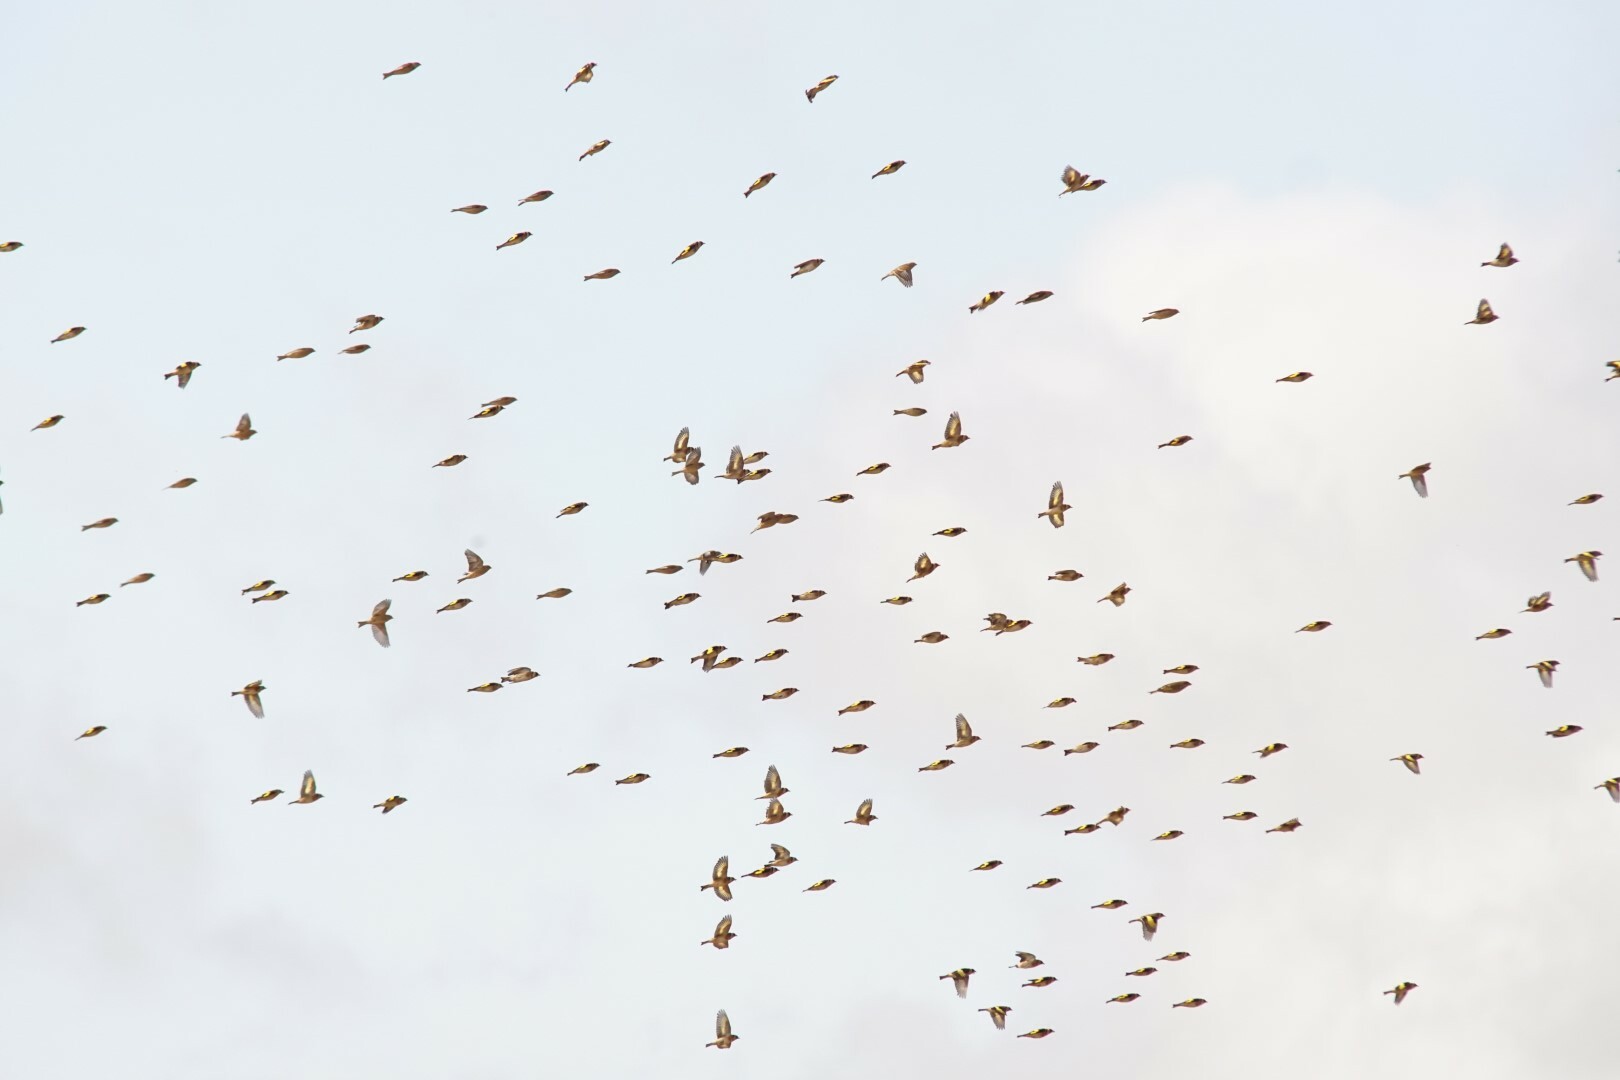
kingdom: Animalia
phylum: Chordata
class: Aves
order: Passeriformes
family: Fringillidae
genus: Carduelis
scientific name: Carduelis carduelis
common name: European goldfinch
